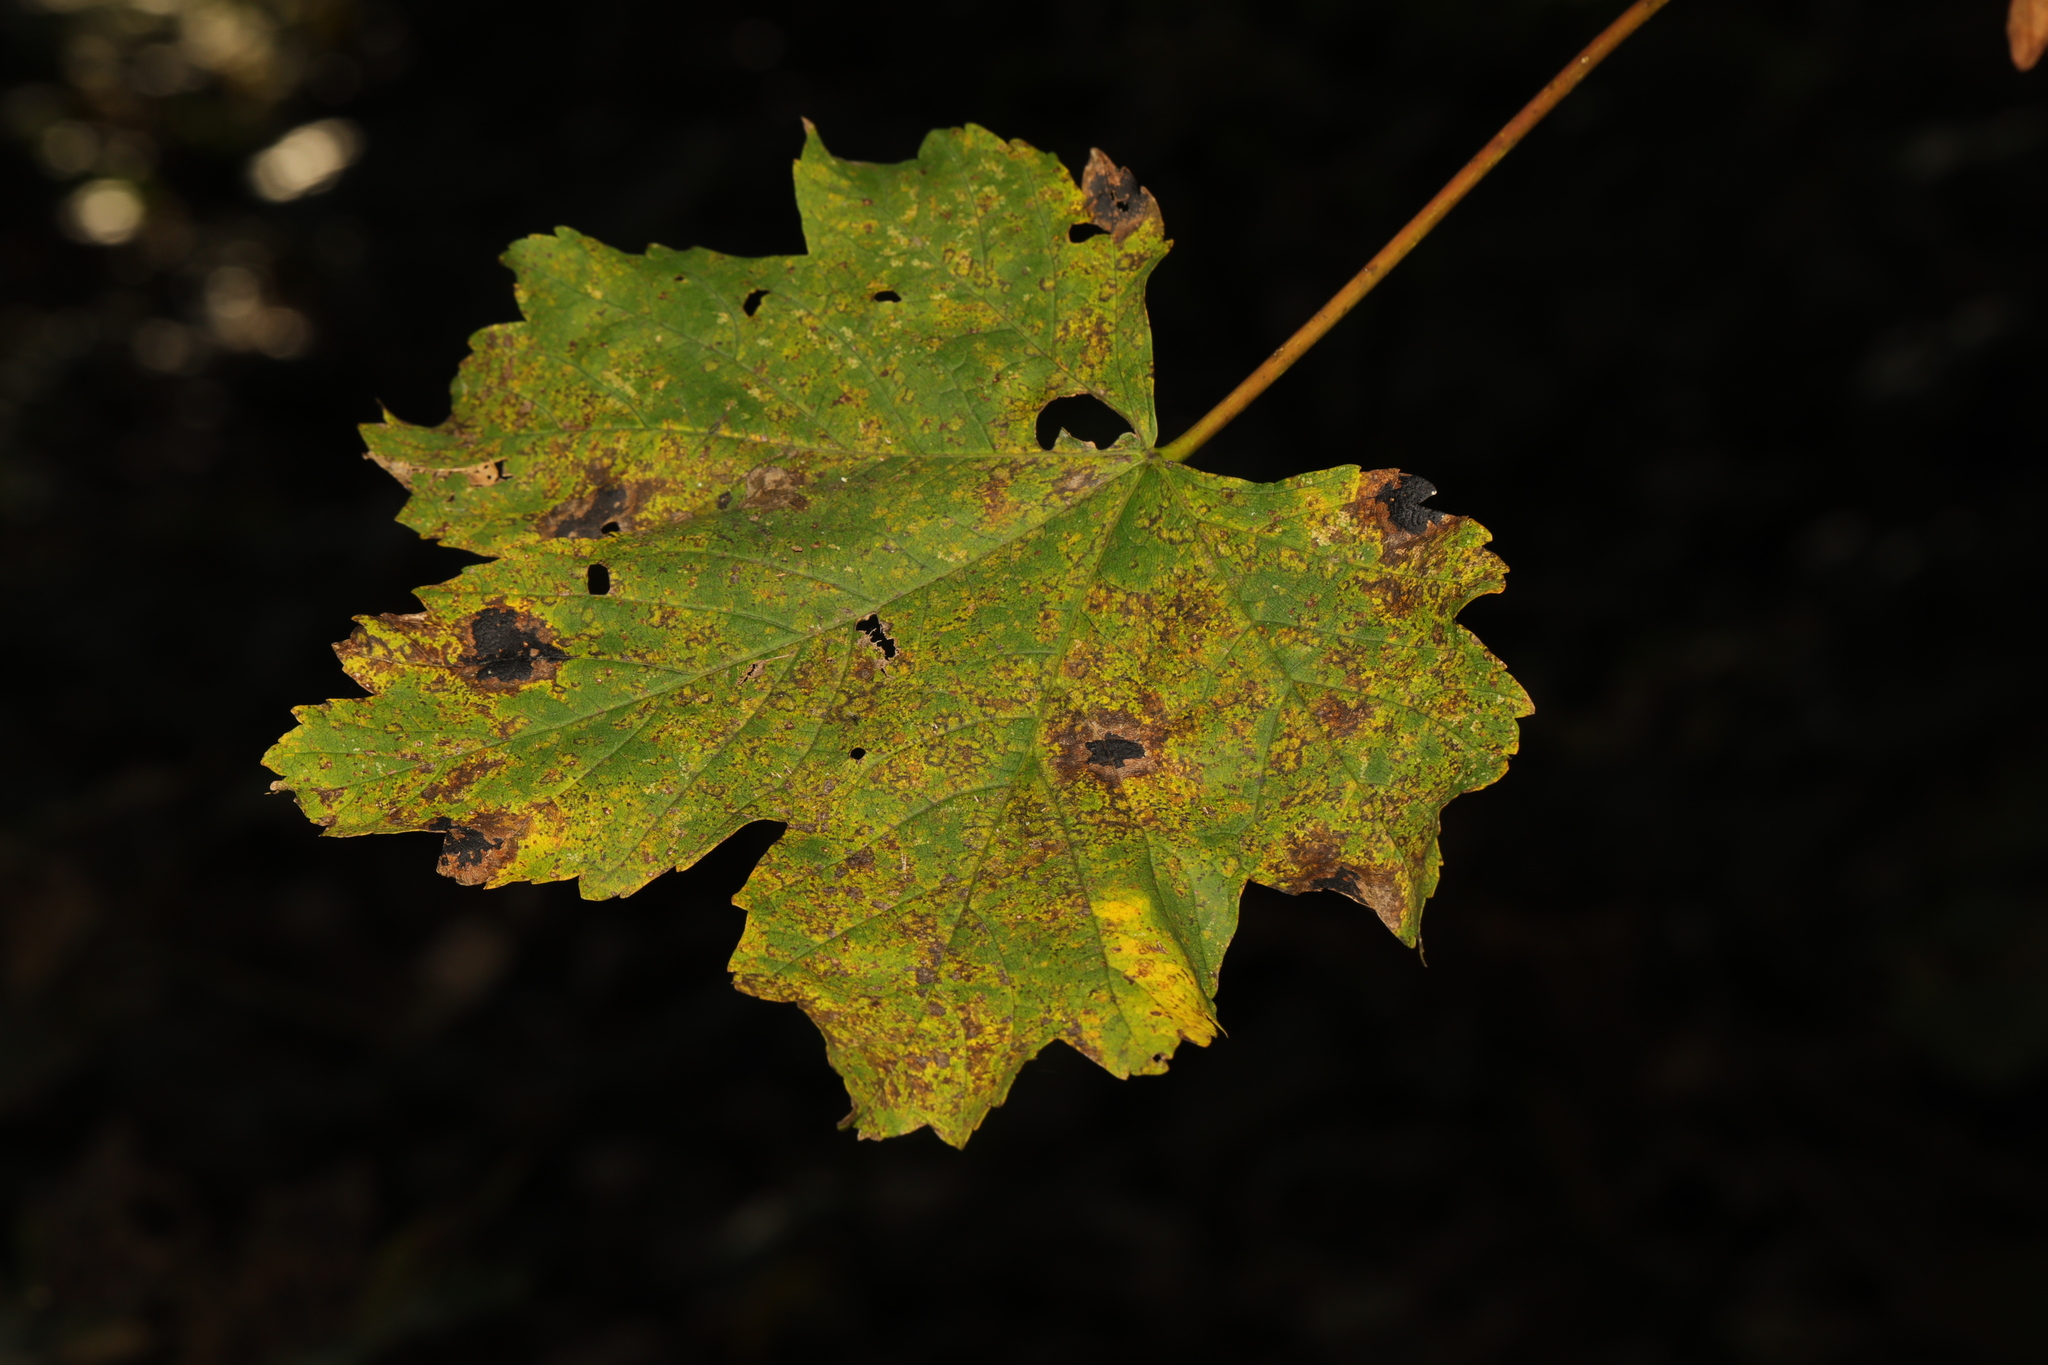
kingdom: Plantae
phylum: Tracheophyta
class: Magnoliopsida
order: Sapindales
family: Sapindaceae
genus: Acer
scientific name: Acer pseudoplatanus
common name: Sycamore
